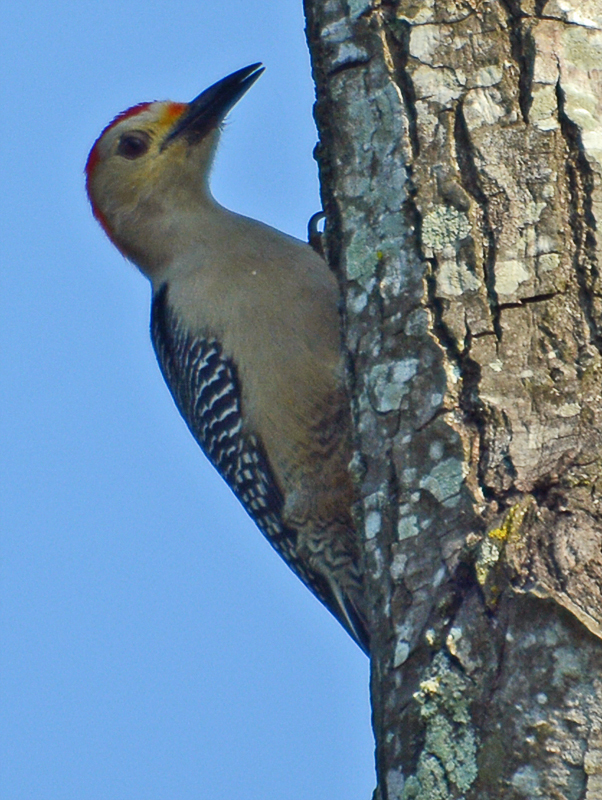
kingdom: Animalia
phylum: Chordata
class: Aves
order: Piciformes
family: Picidae
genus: Melanerpes
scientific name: Melanerpes aurifrons
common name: Golden-fronted woodpecker
